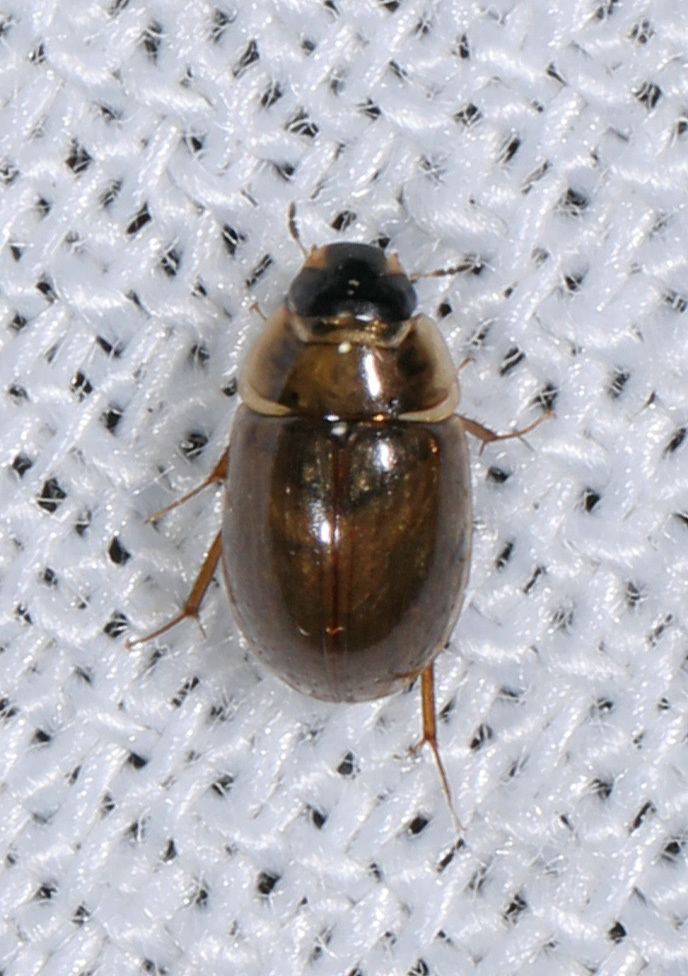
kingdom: Animalia
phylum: Arthropoda
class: Insecta
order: Coleoptera
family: Hydrophilidae
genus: Enochrus
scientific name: Enochrus
